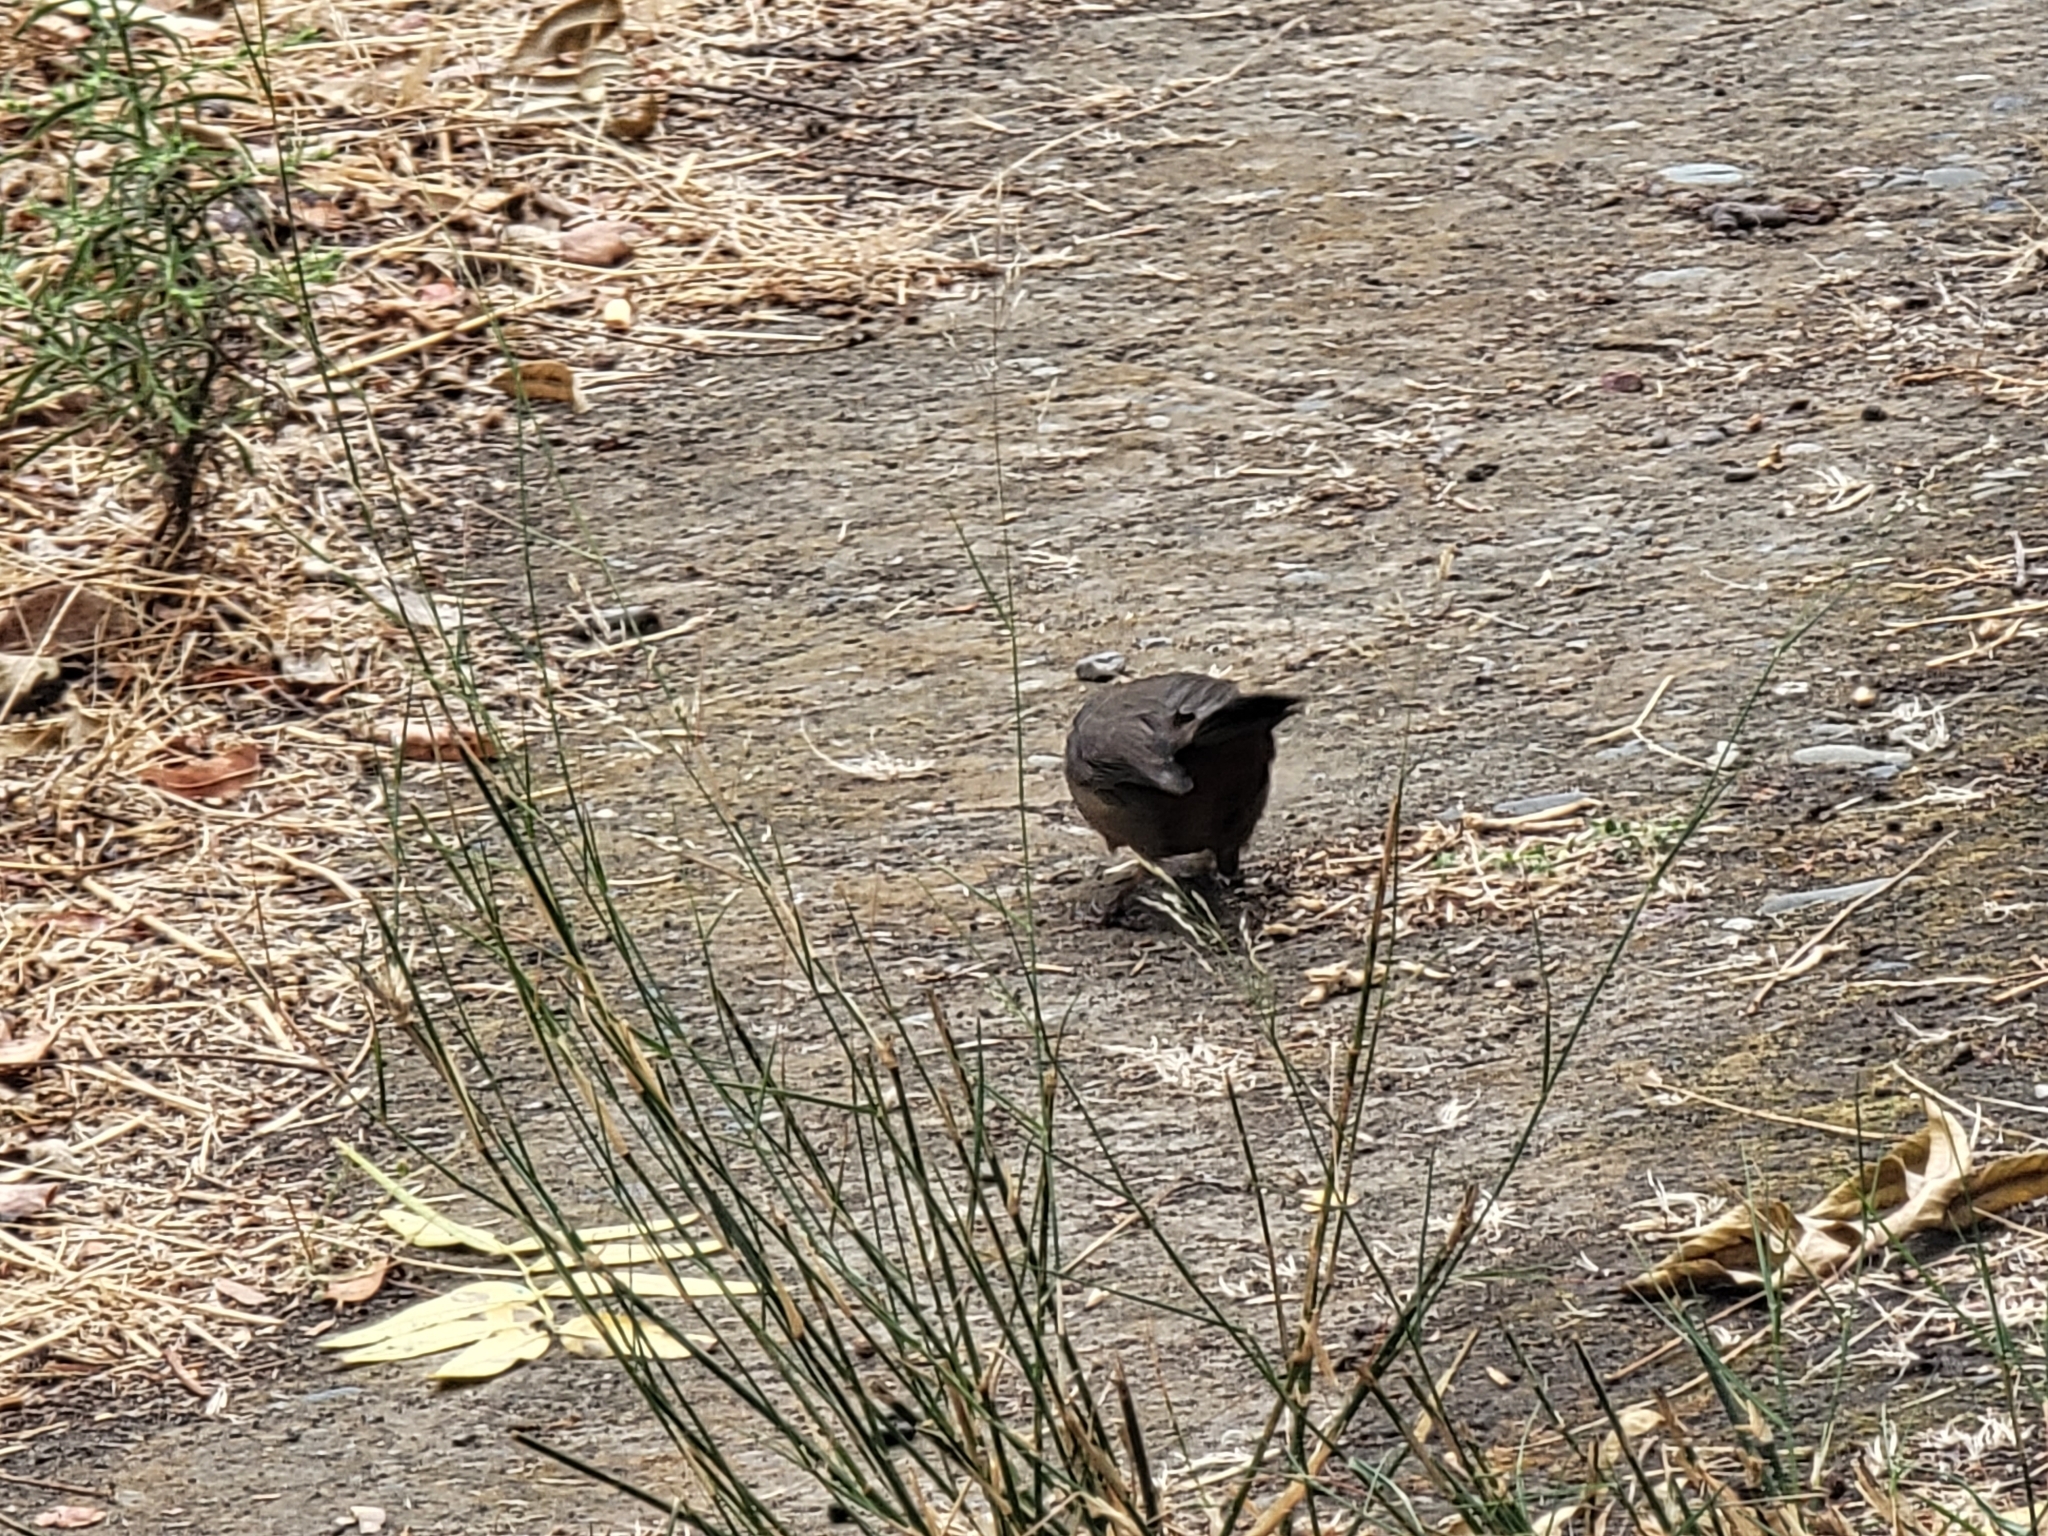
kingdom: Animalia
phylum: Chordata
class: Aves
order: Passeriformes
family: Passerellidae
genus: Melozone
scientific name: Melozone crissalis
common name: California towhee
